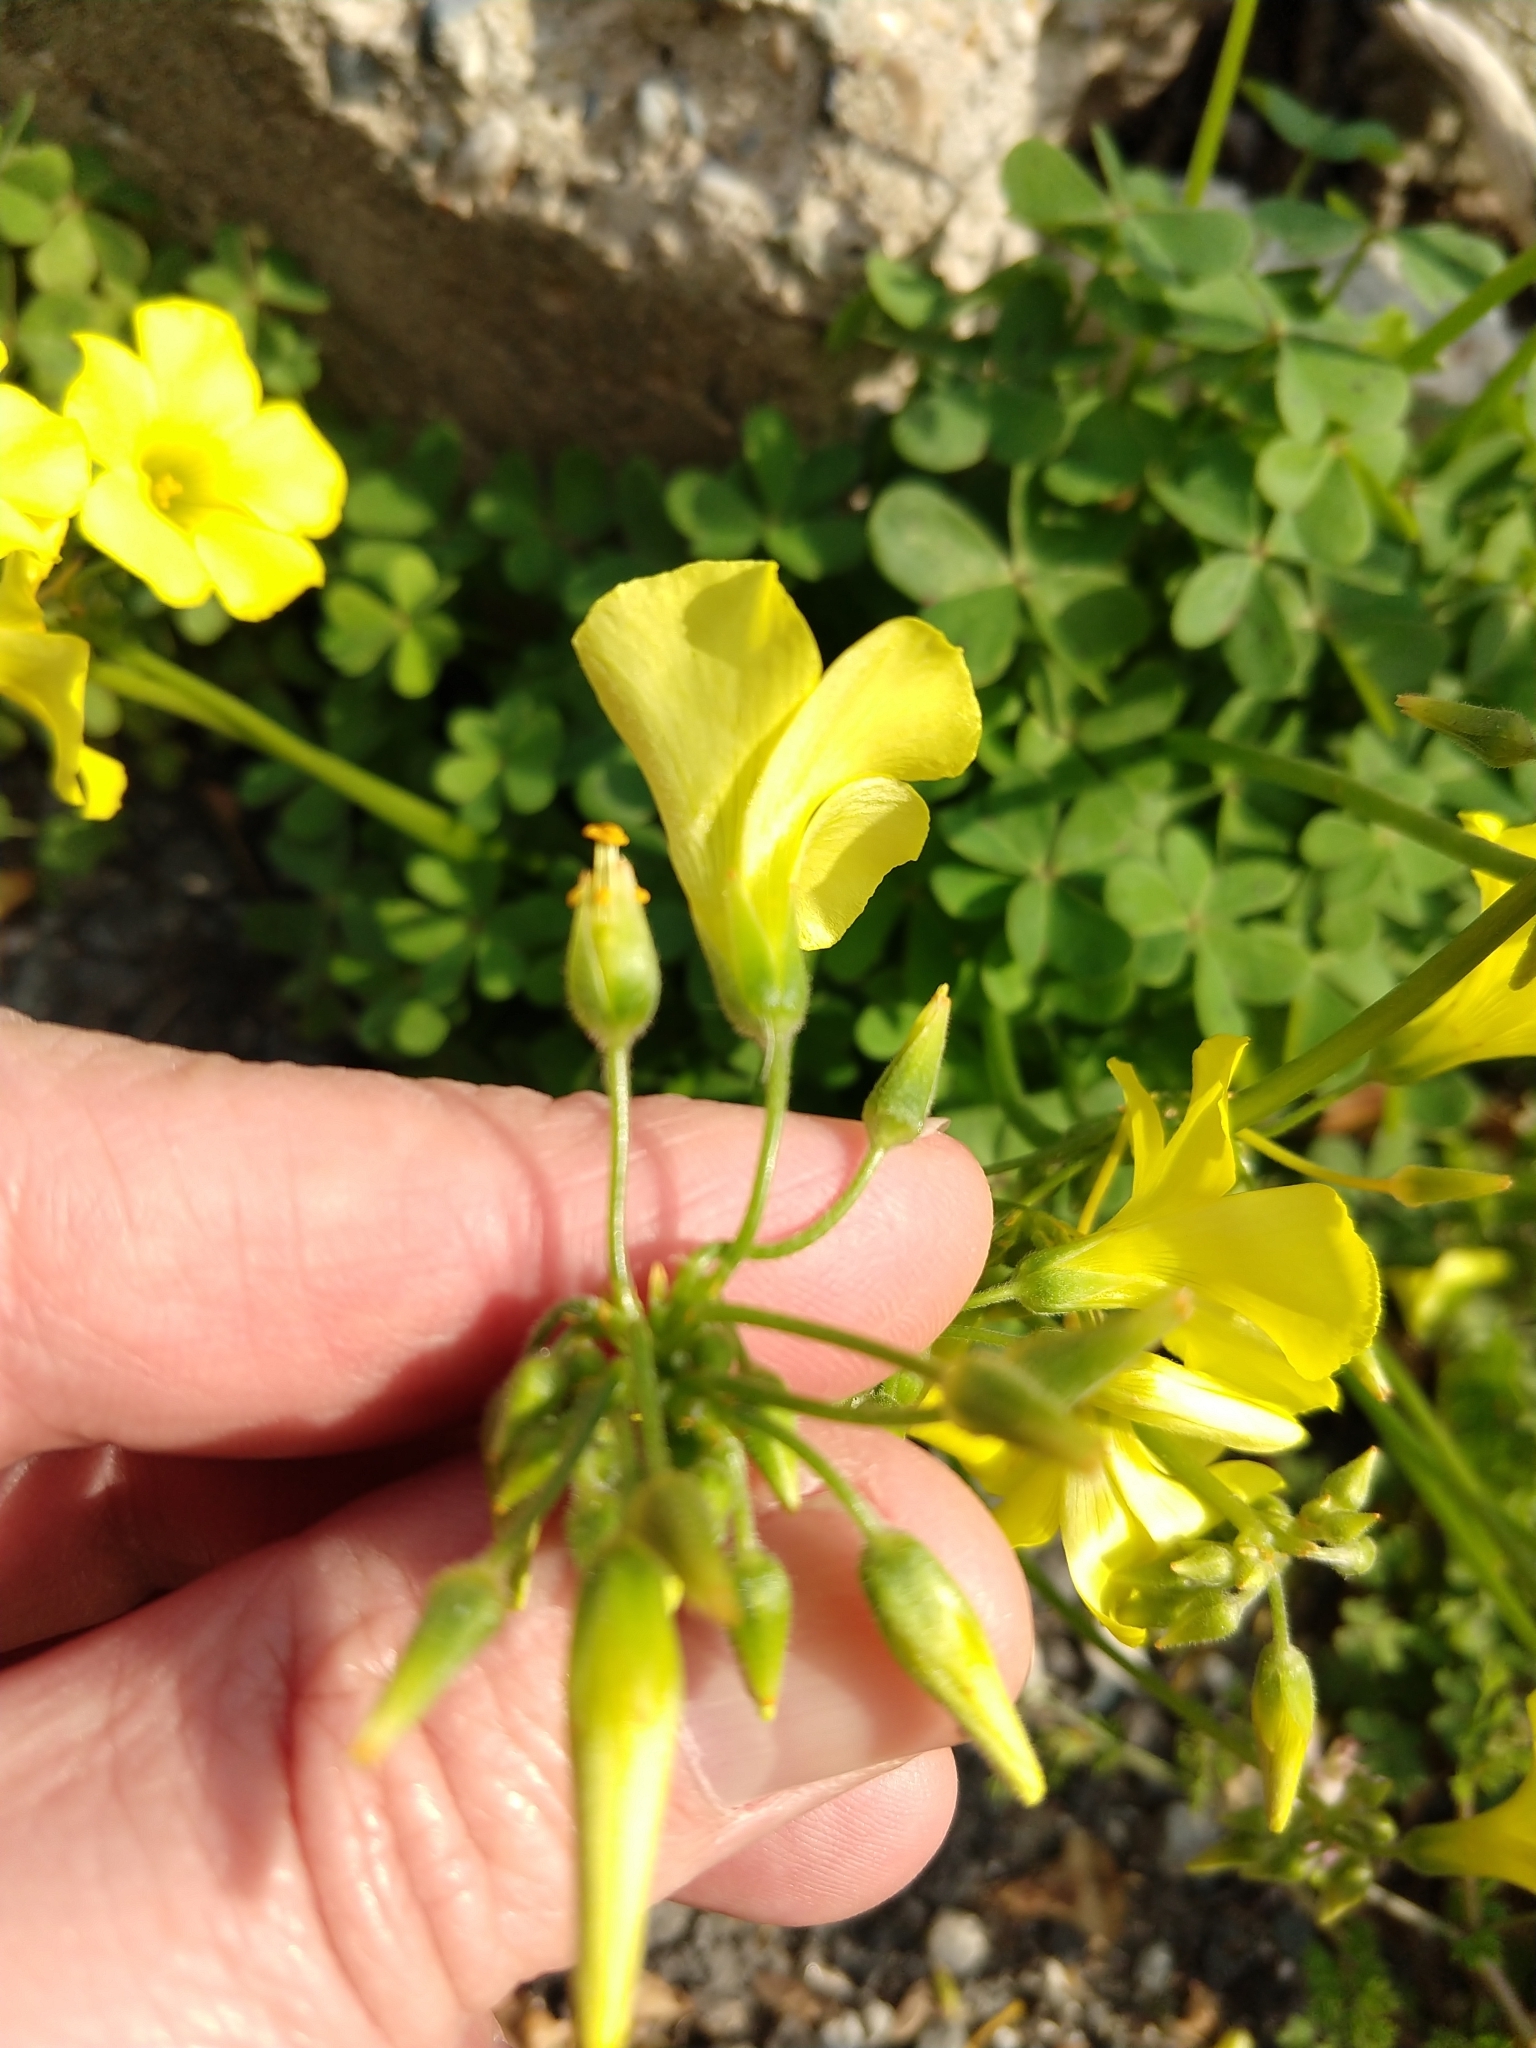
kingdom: Plantae
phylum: Tracheophyta
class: Magnoliopsida
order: Oxalidales
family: Oxalidaceae
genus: Oxalis
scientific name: Oxalis pes-caprae
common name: Bermuda-buttercup
